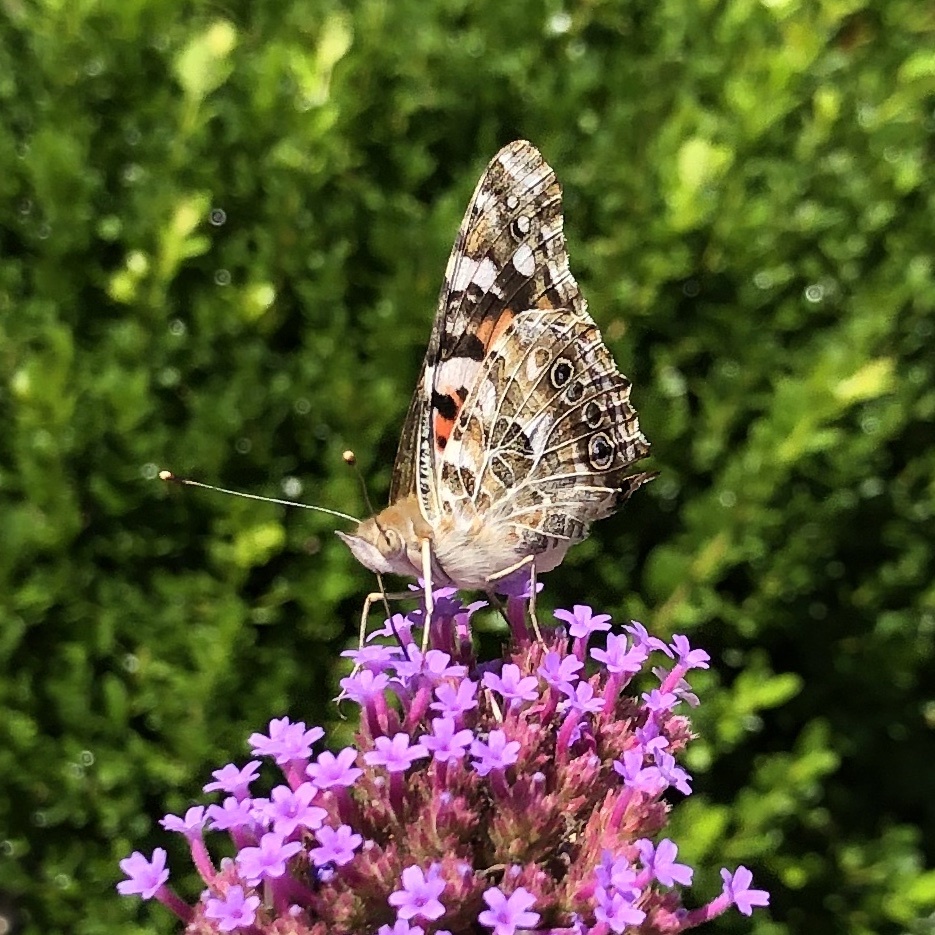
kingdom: Animalia
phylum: Arthropoda
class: Insecta
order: Lepidoptera
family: Nymphalidae
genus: Vanessa
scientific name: Vanessa cardui
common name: Painted lady
